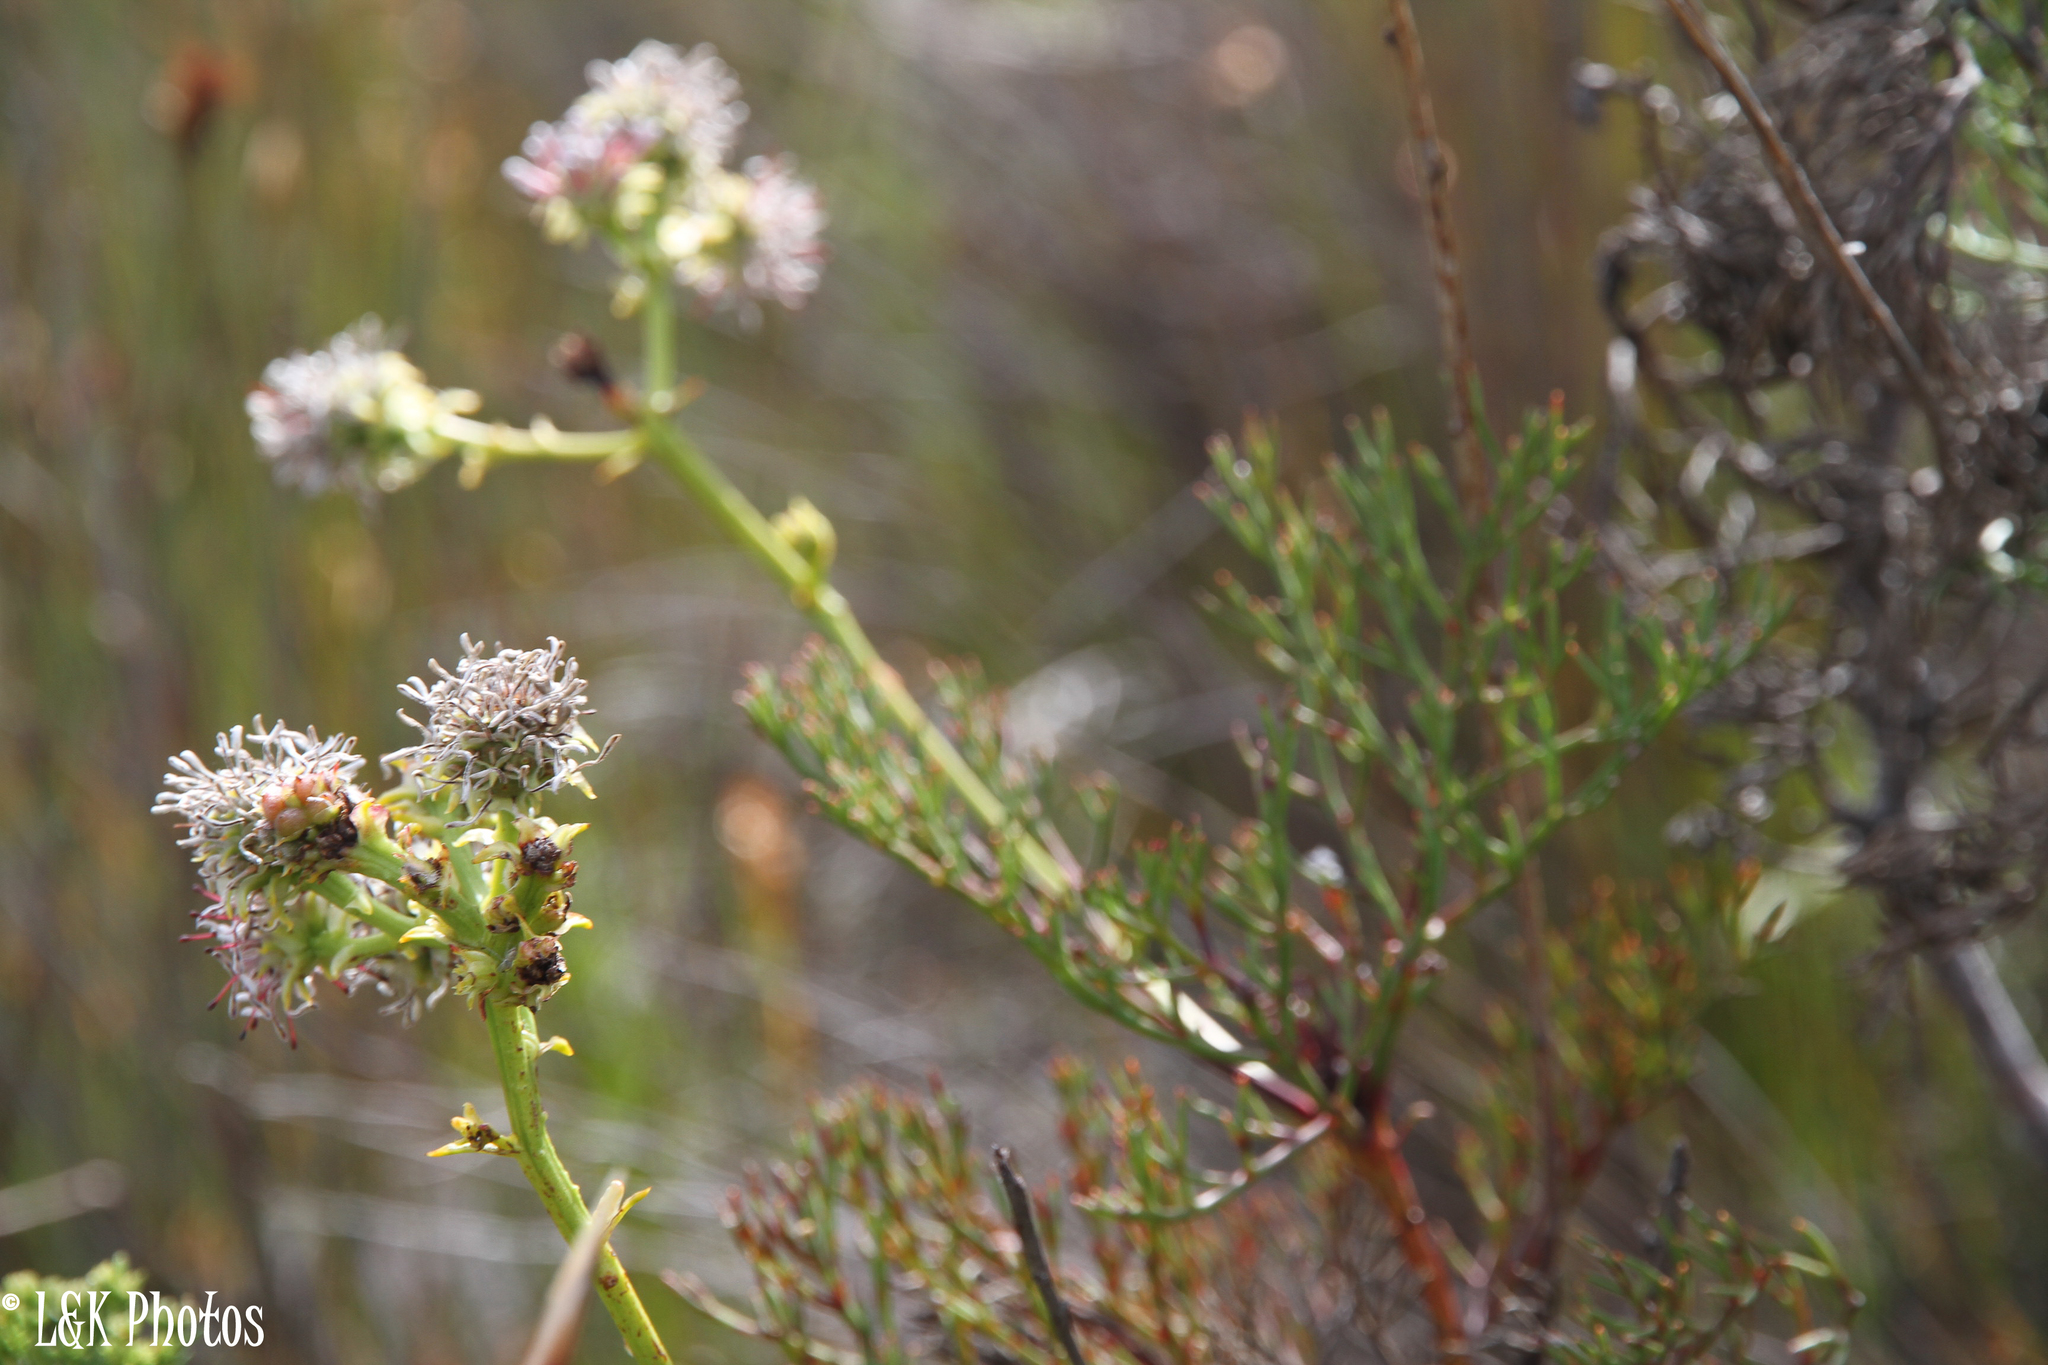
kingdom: Plantae
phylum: Tracheophyta
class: Magnoliopsida
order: Proteales
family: Proteaceae
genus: Serruria
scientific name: Serruria elongata
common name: Long-stalk spiderhead
